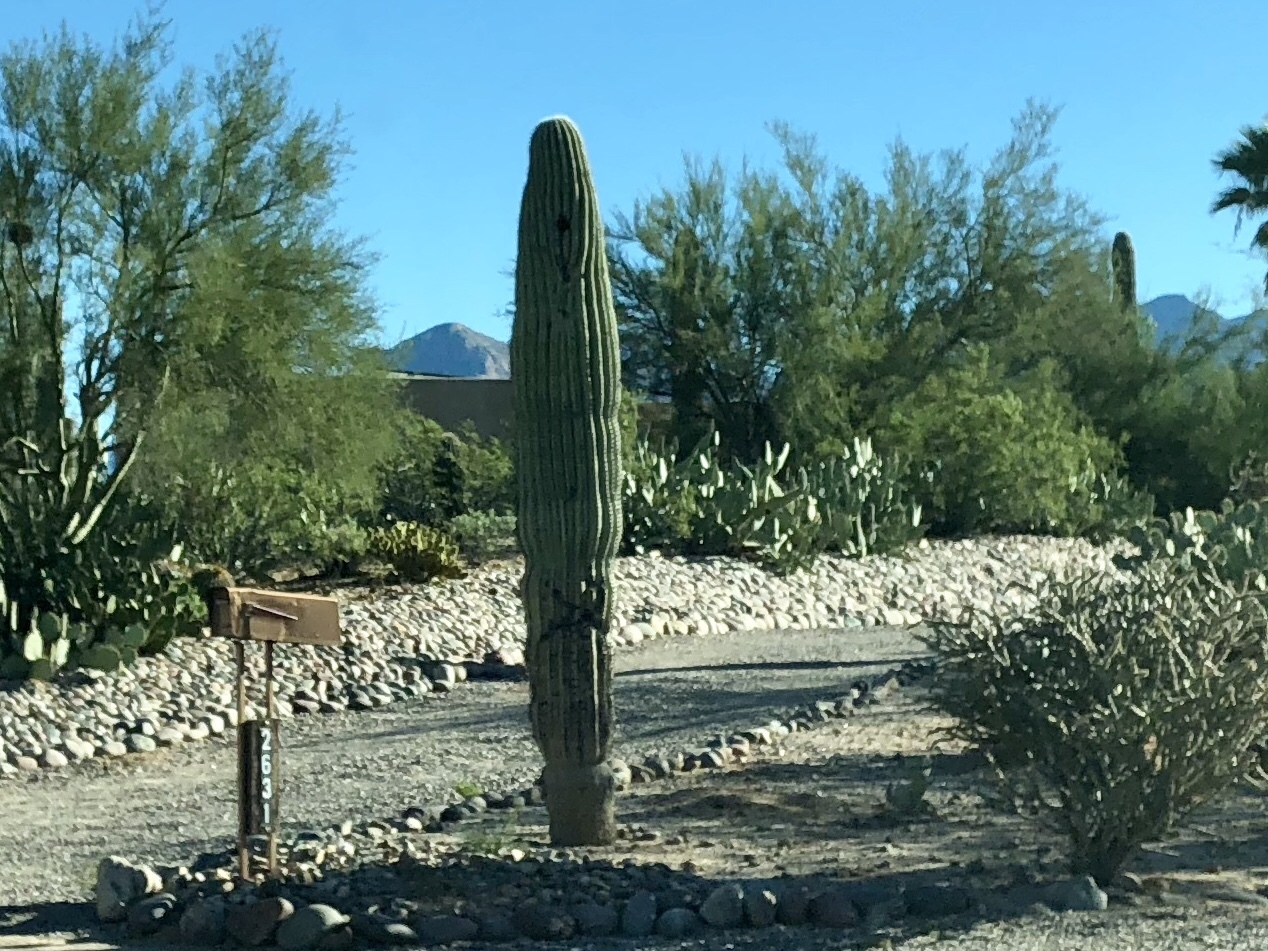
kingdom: Plantae
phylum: Tracheophyta
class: Magnoliopsida
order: Caryophyllales
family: Cactaceae
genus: Carnegiea
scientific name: Carnegiea gigantea
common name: Saguaro
